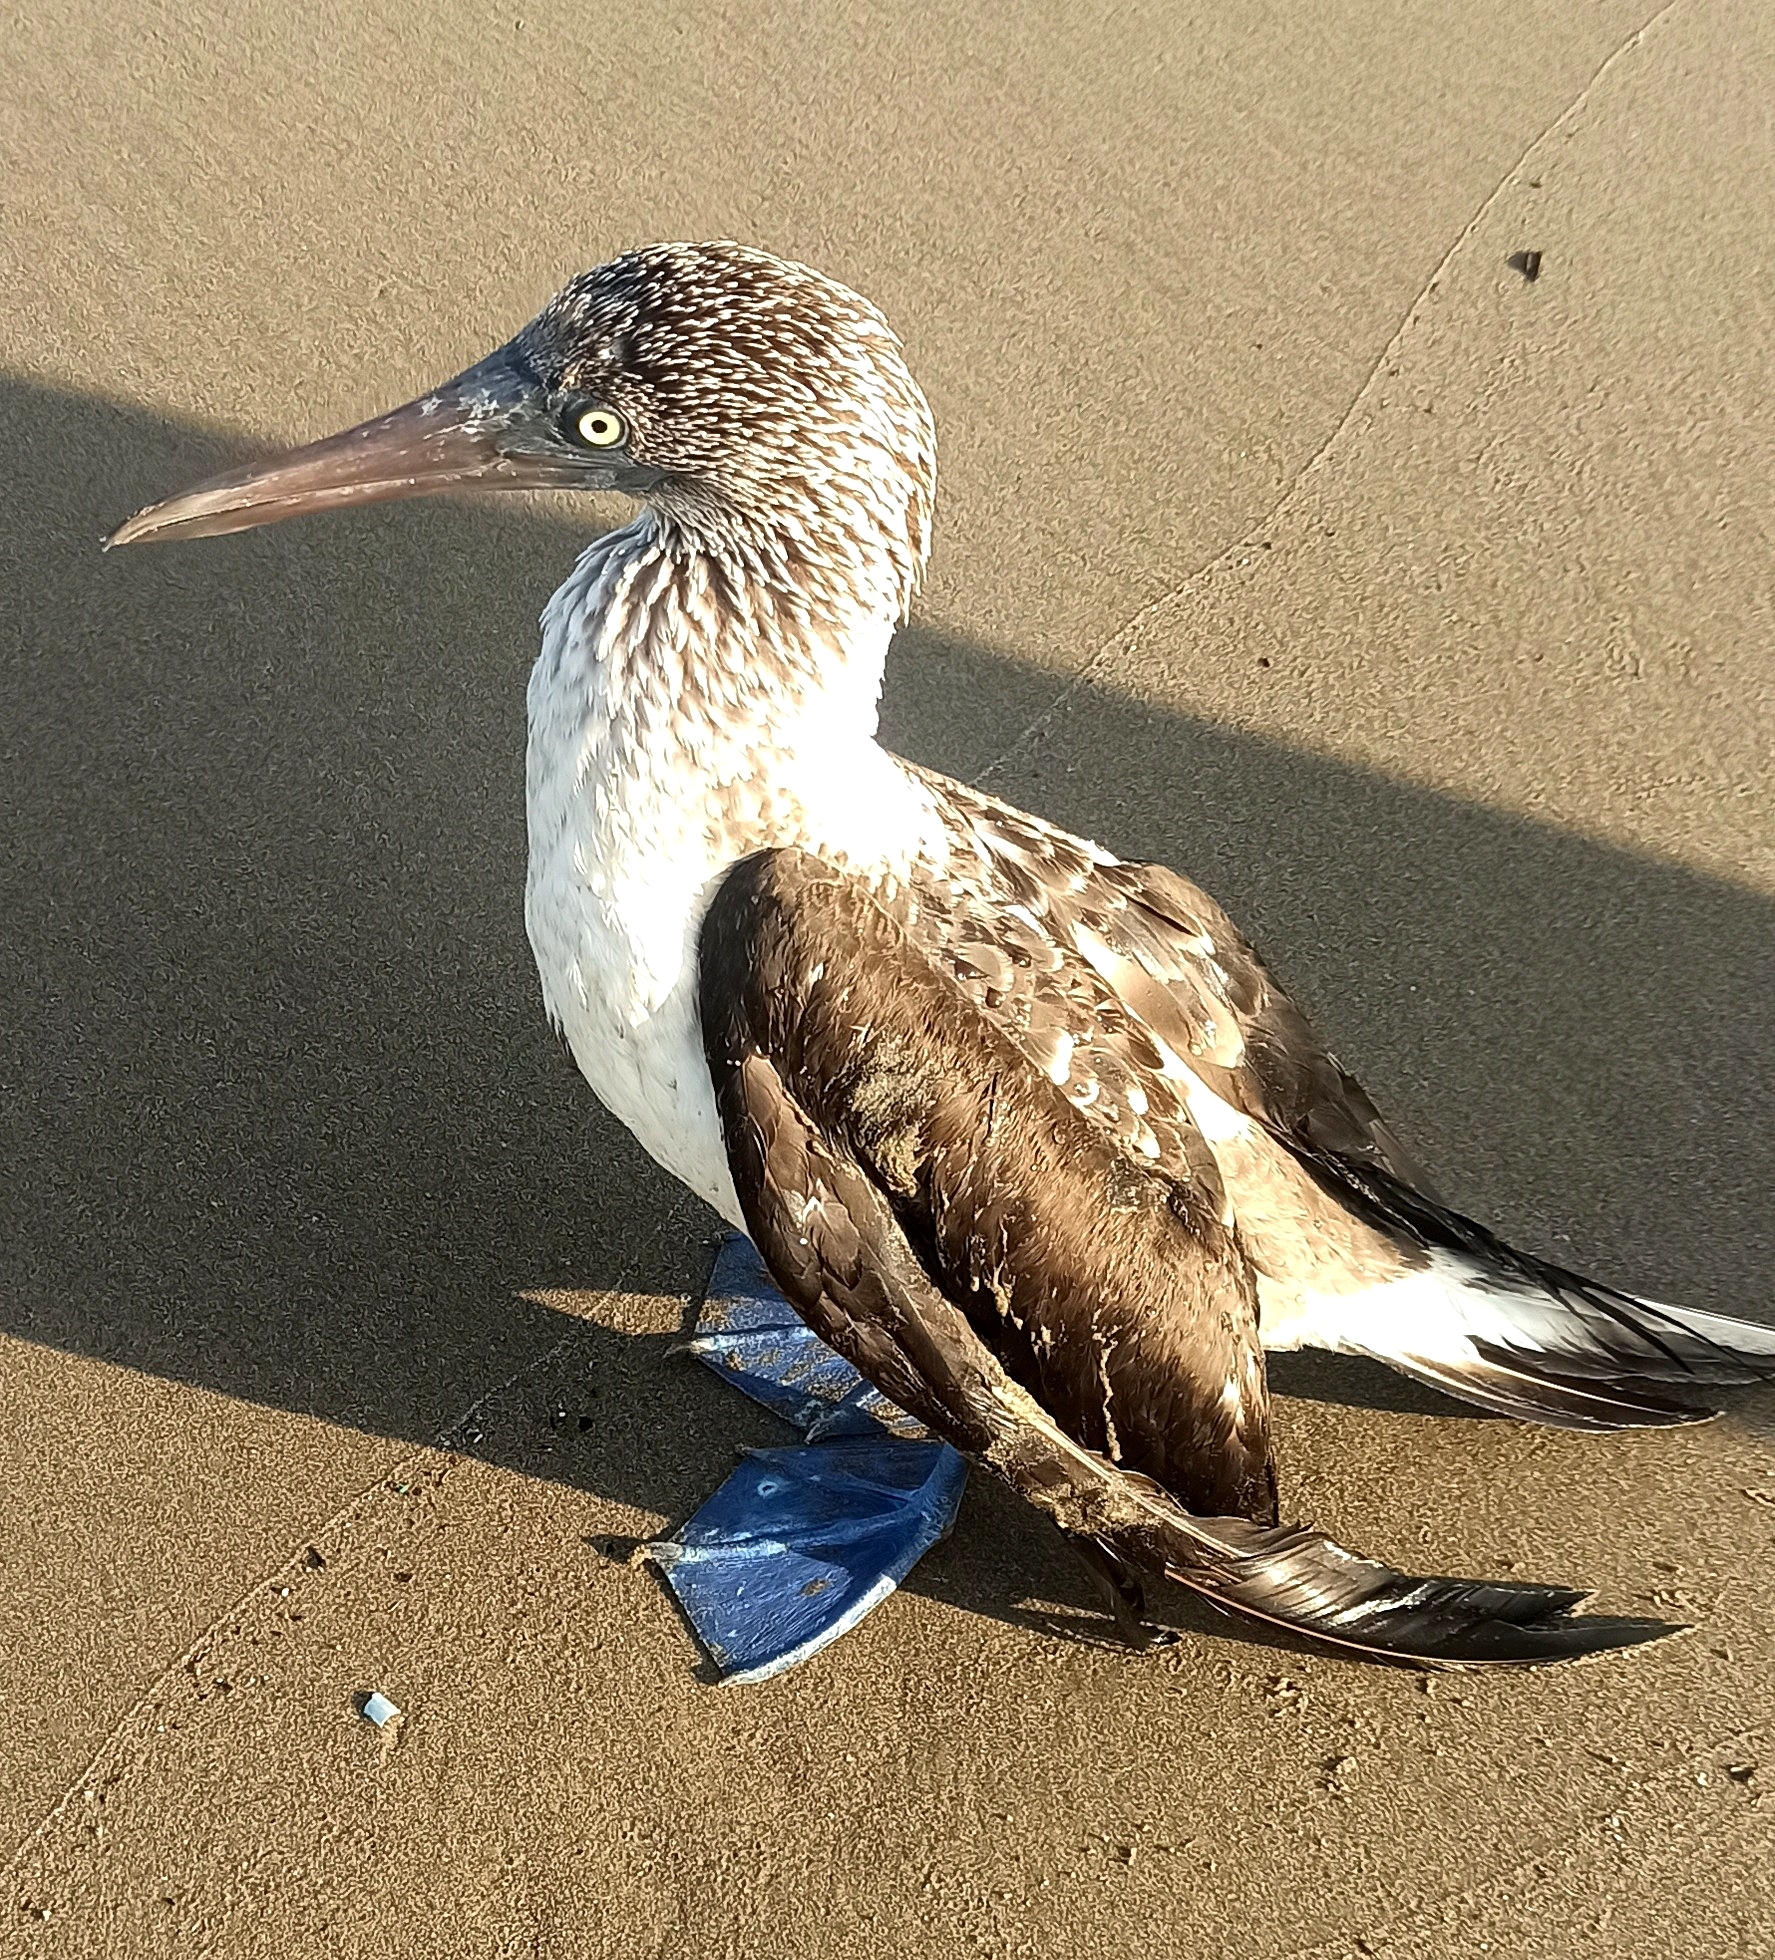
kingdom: Animalia
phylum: Chordata
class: Aves
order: Suliformes
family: Sulidae
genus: Sula
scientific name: Sula nebouxii
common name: Blue-footed booby
